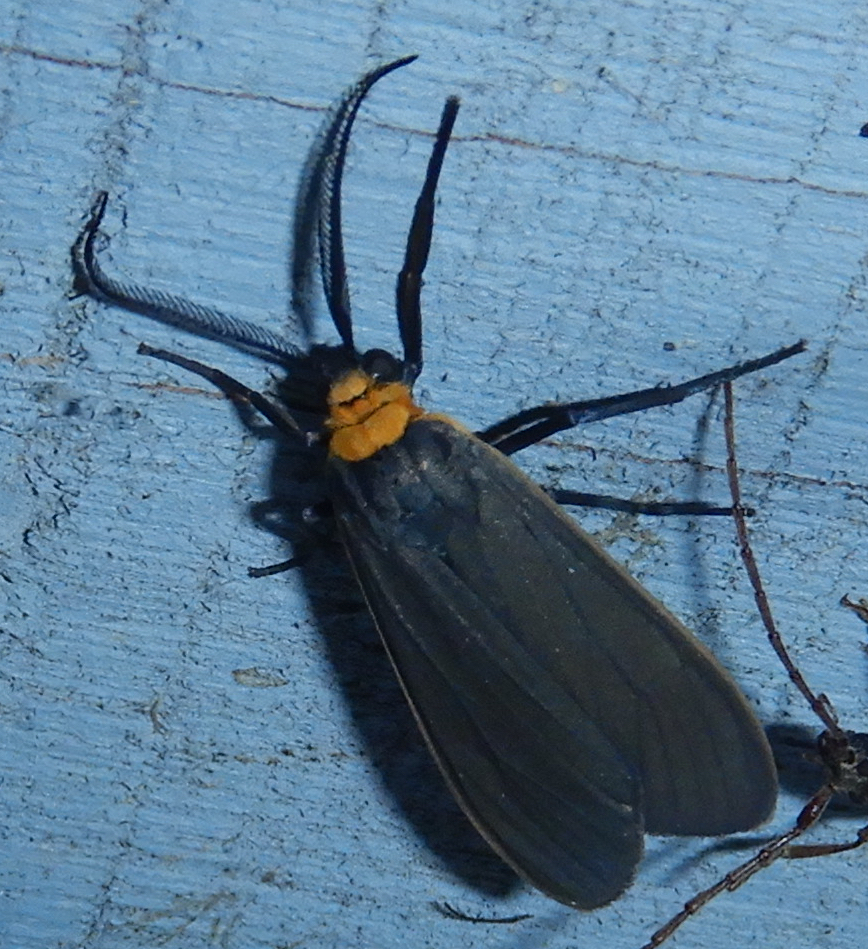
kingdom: Animalia
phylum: Arthropoda
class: Insecta
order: Lepidoptera
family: Erebidae
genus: Cisseps
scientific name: Cisseps fulvicollis
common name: Yellow-collared scape moth
